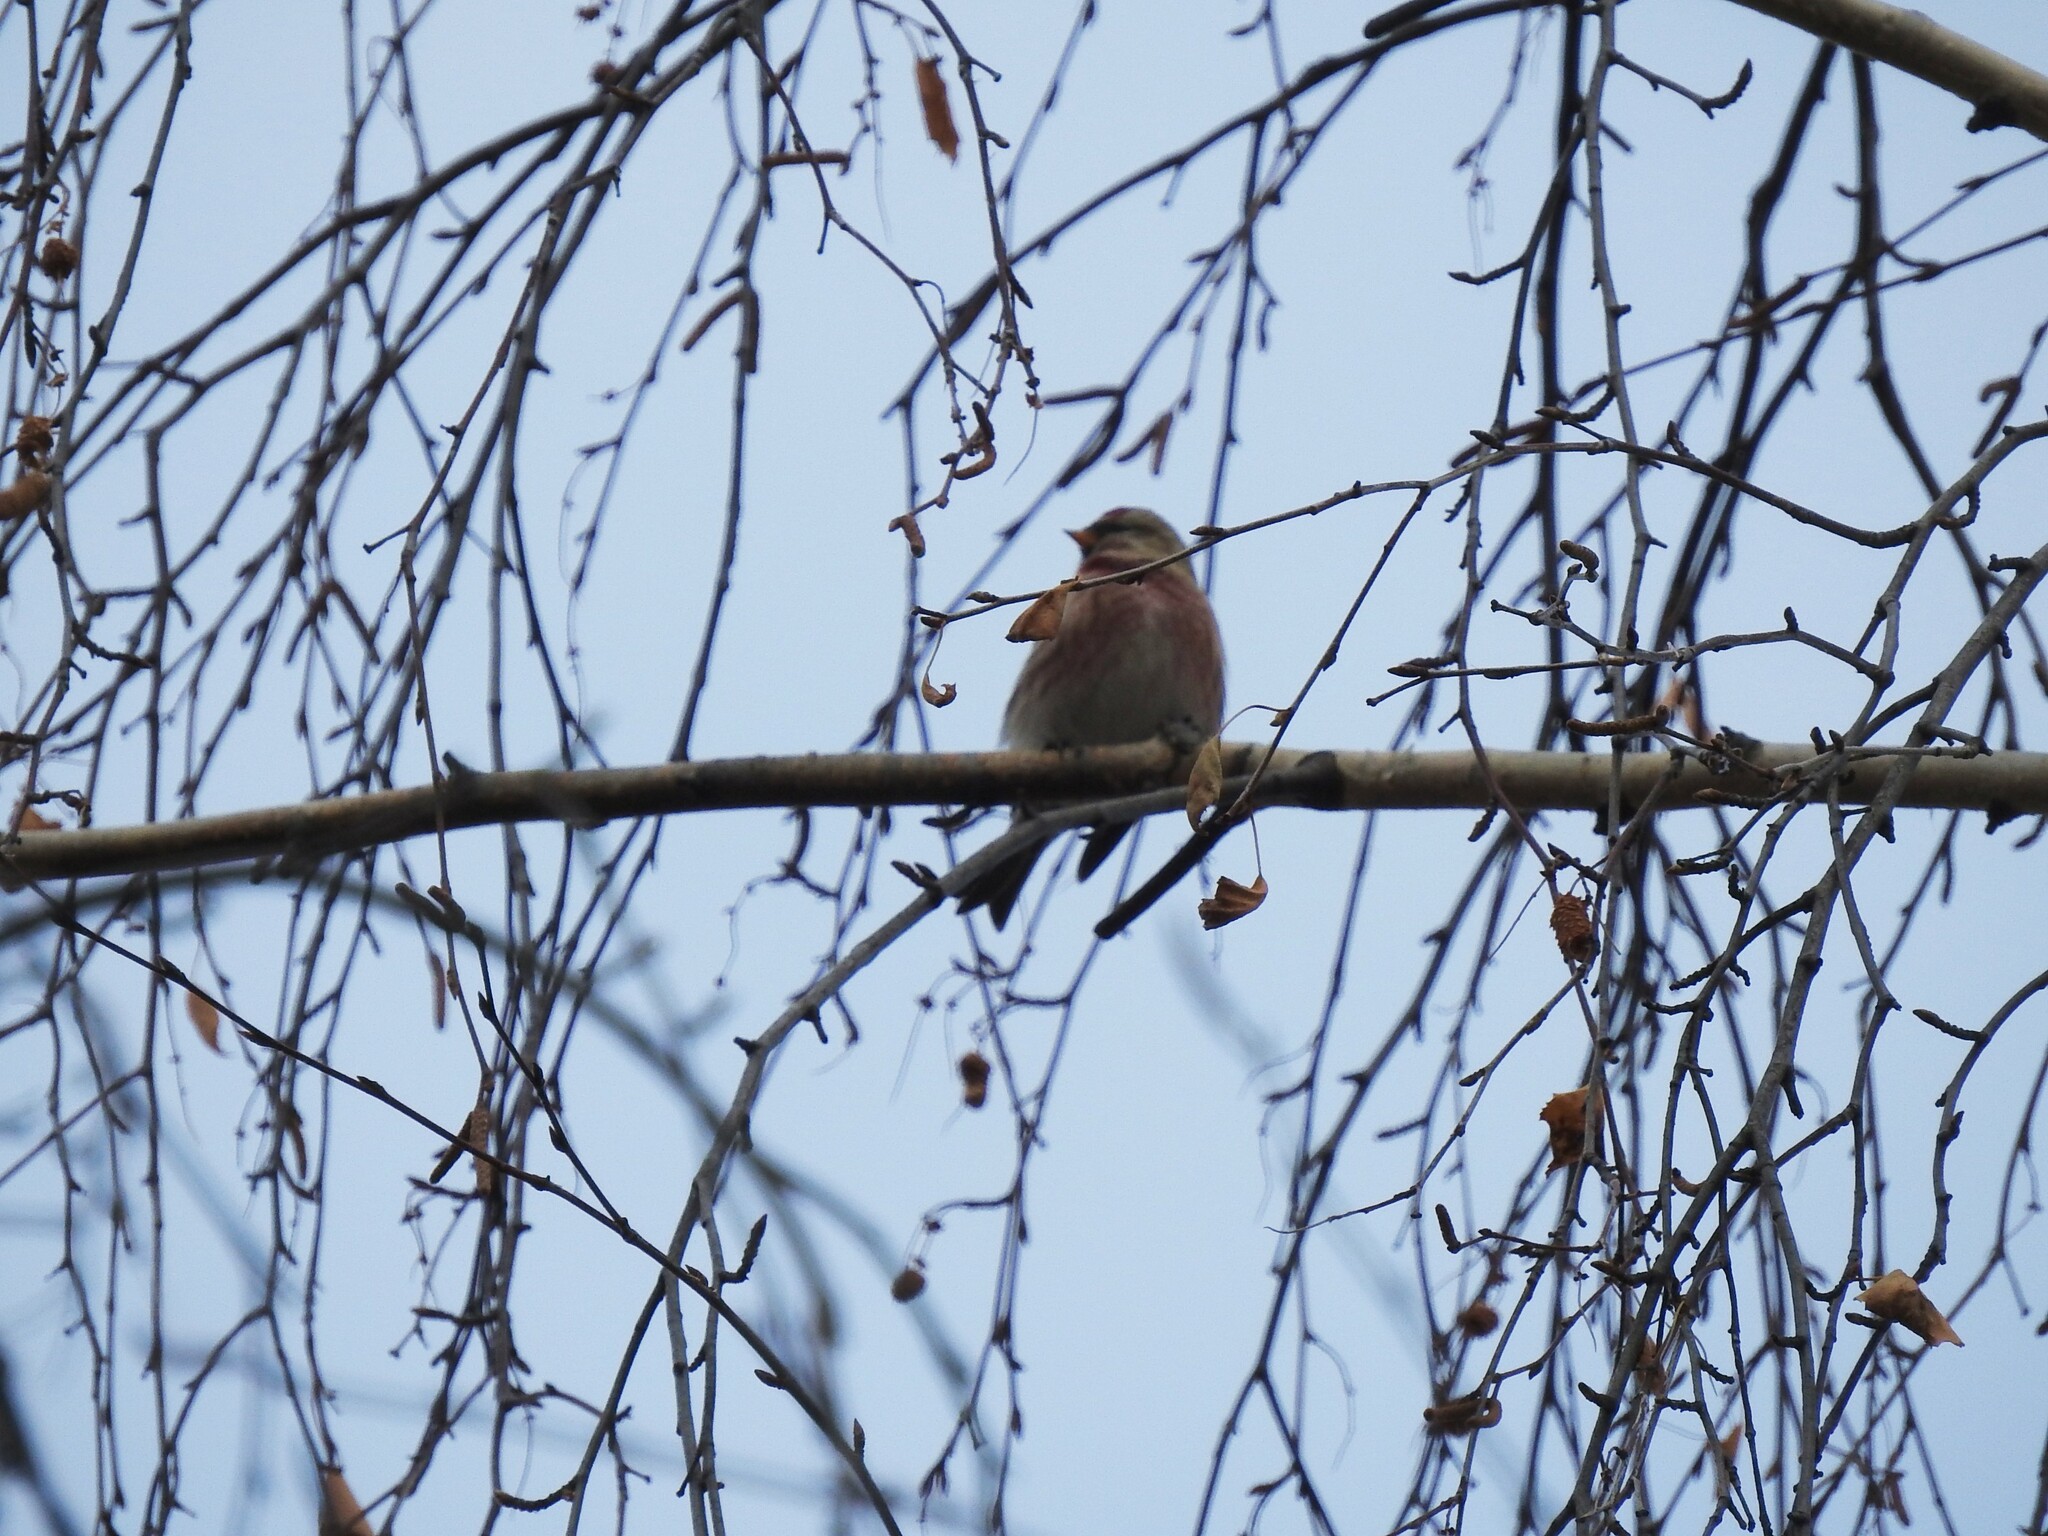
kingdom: Animalia
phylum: Chordata
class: Aves
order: Passeriformes
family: Fringillidae
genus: Acanthis
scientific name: Acanthis flammea
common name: Common redpoll
